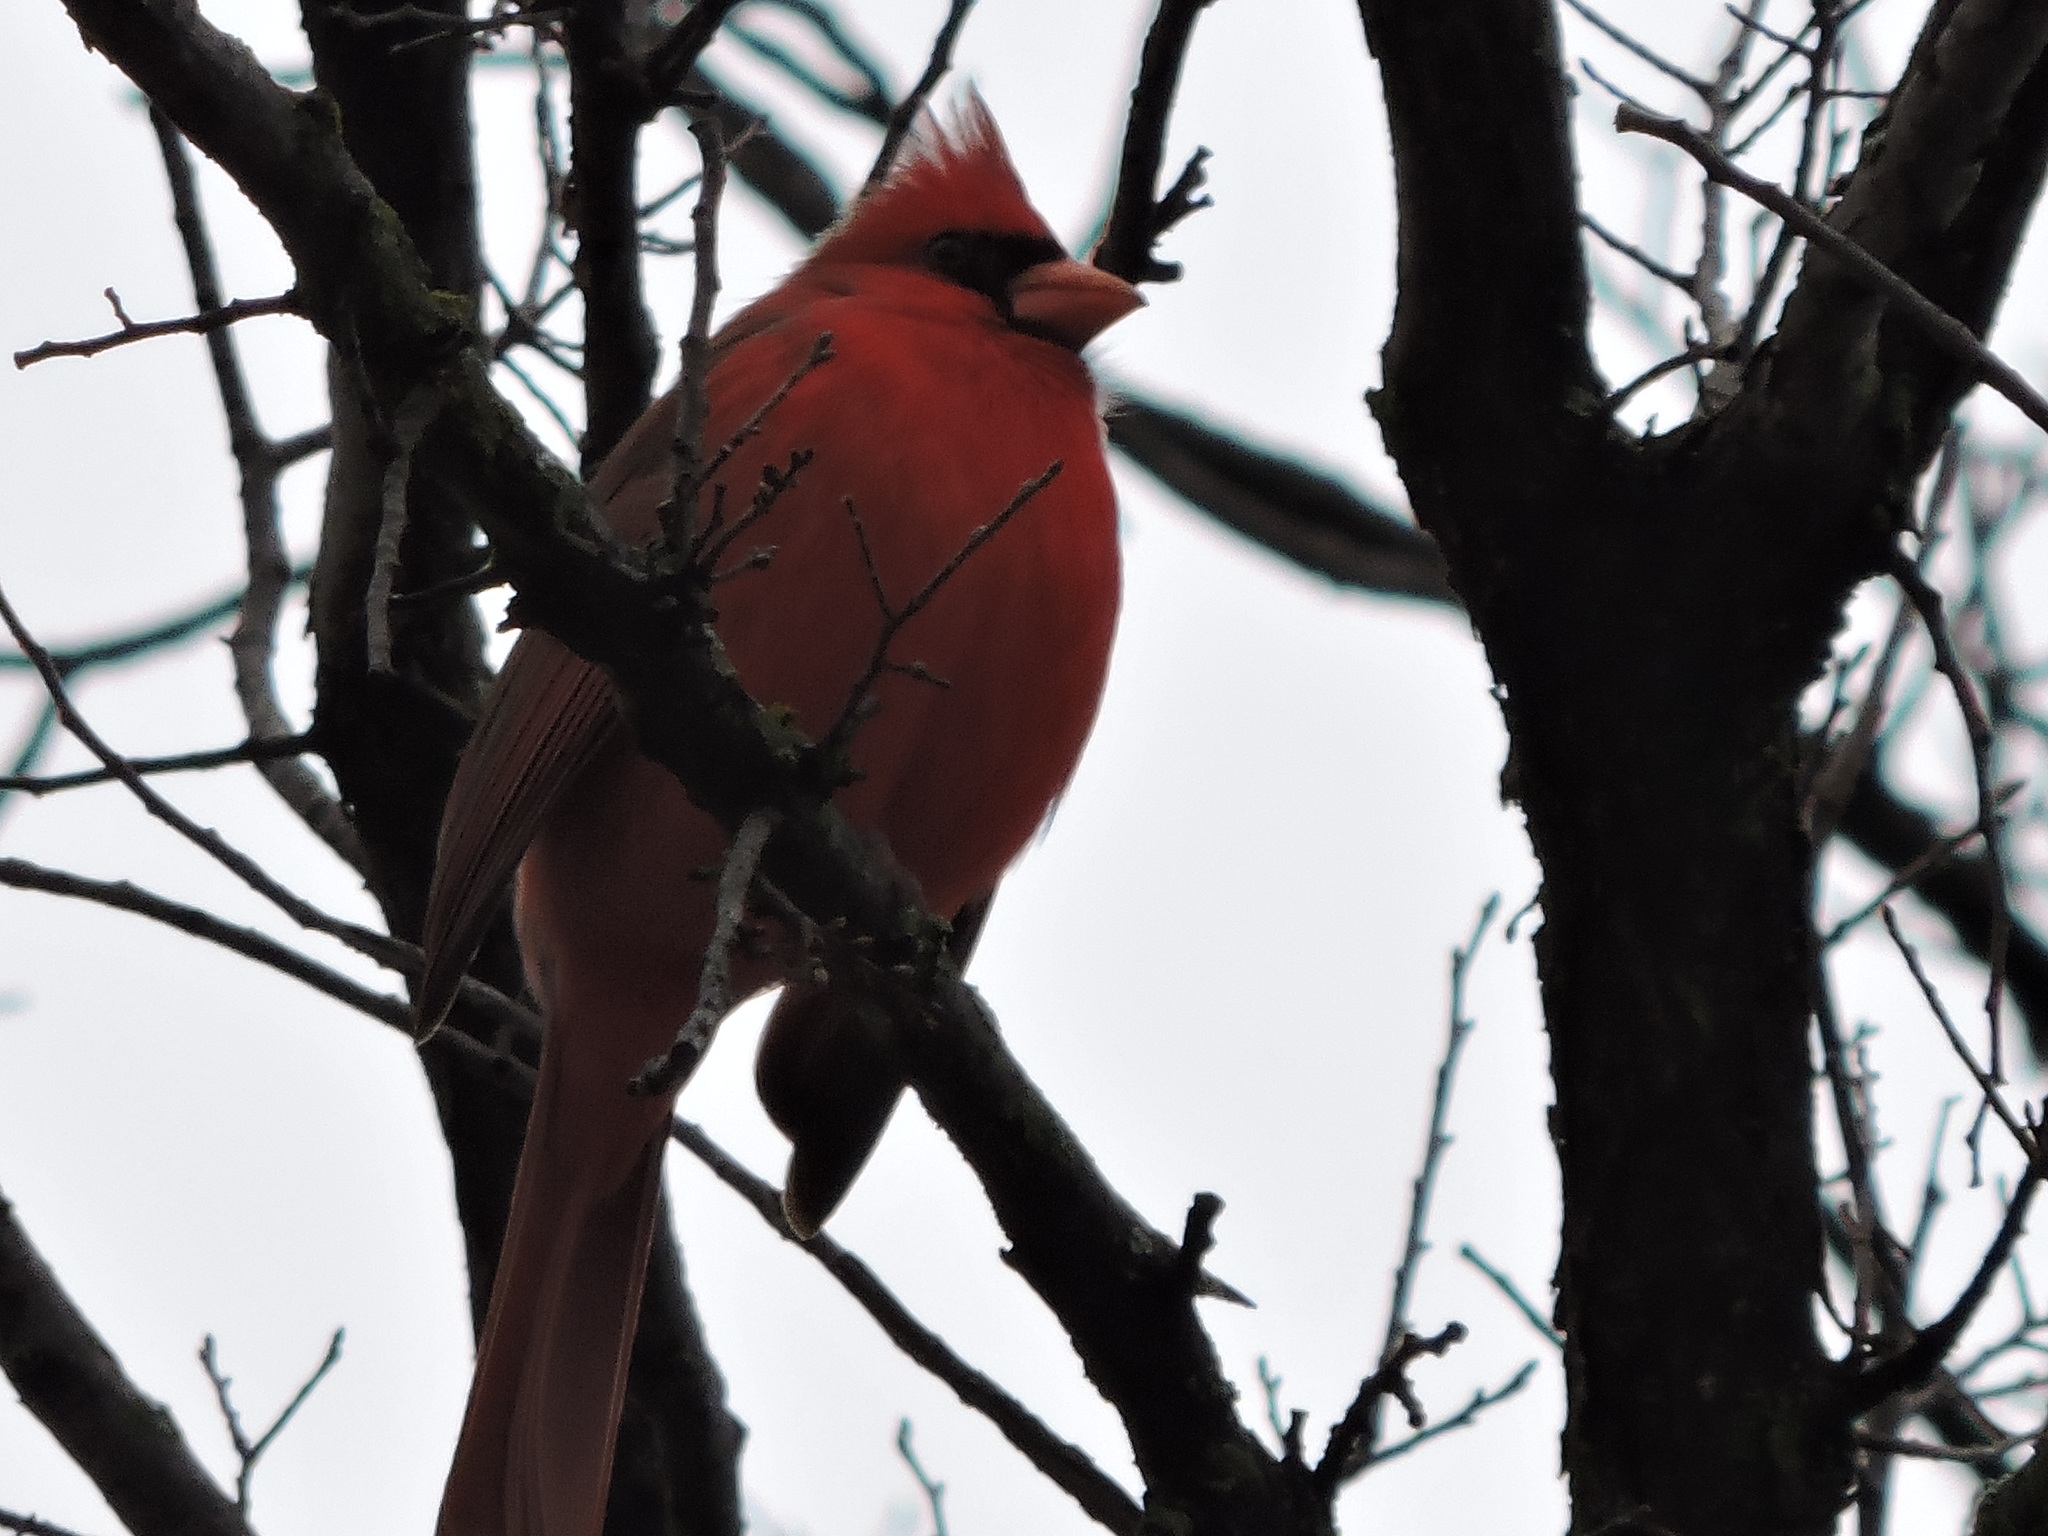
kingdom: Animalia
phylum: Chordata
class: Aves
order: Passeriformes
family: Cardinalidae
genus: Cardinalis
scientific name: Cardinalis cardinalis
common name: Northern cardinal
